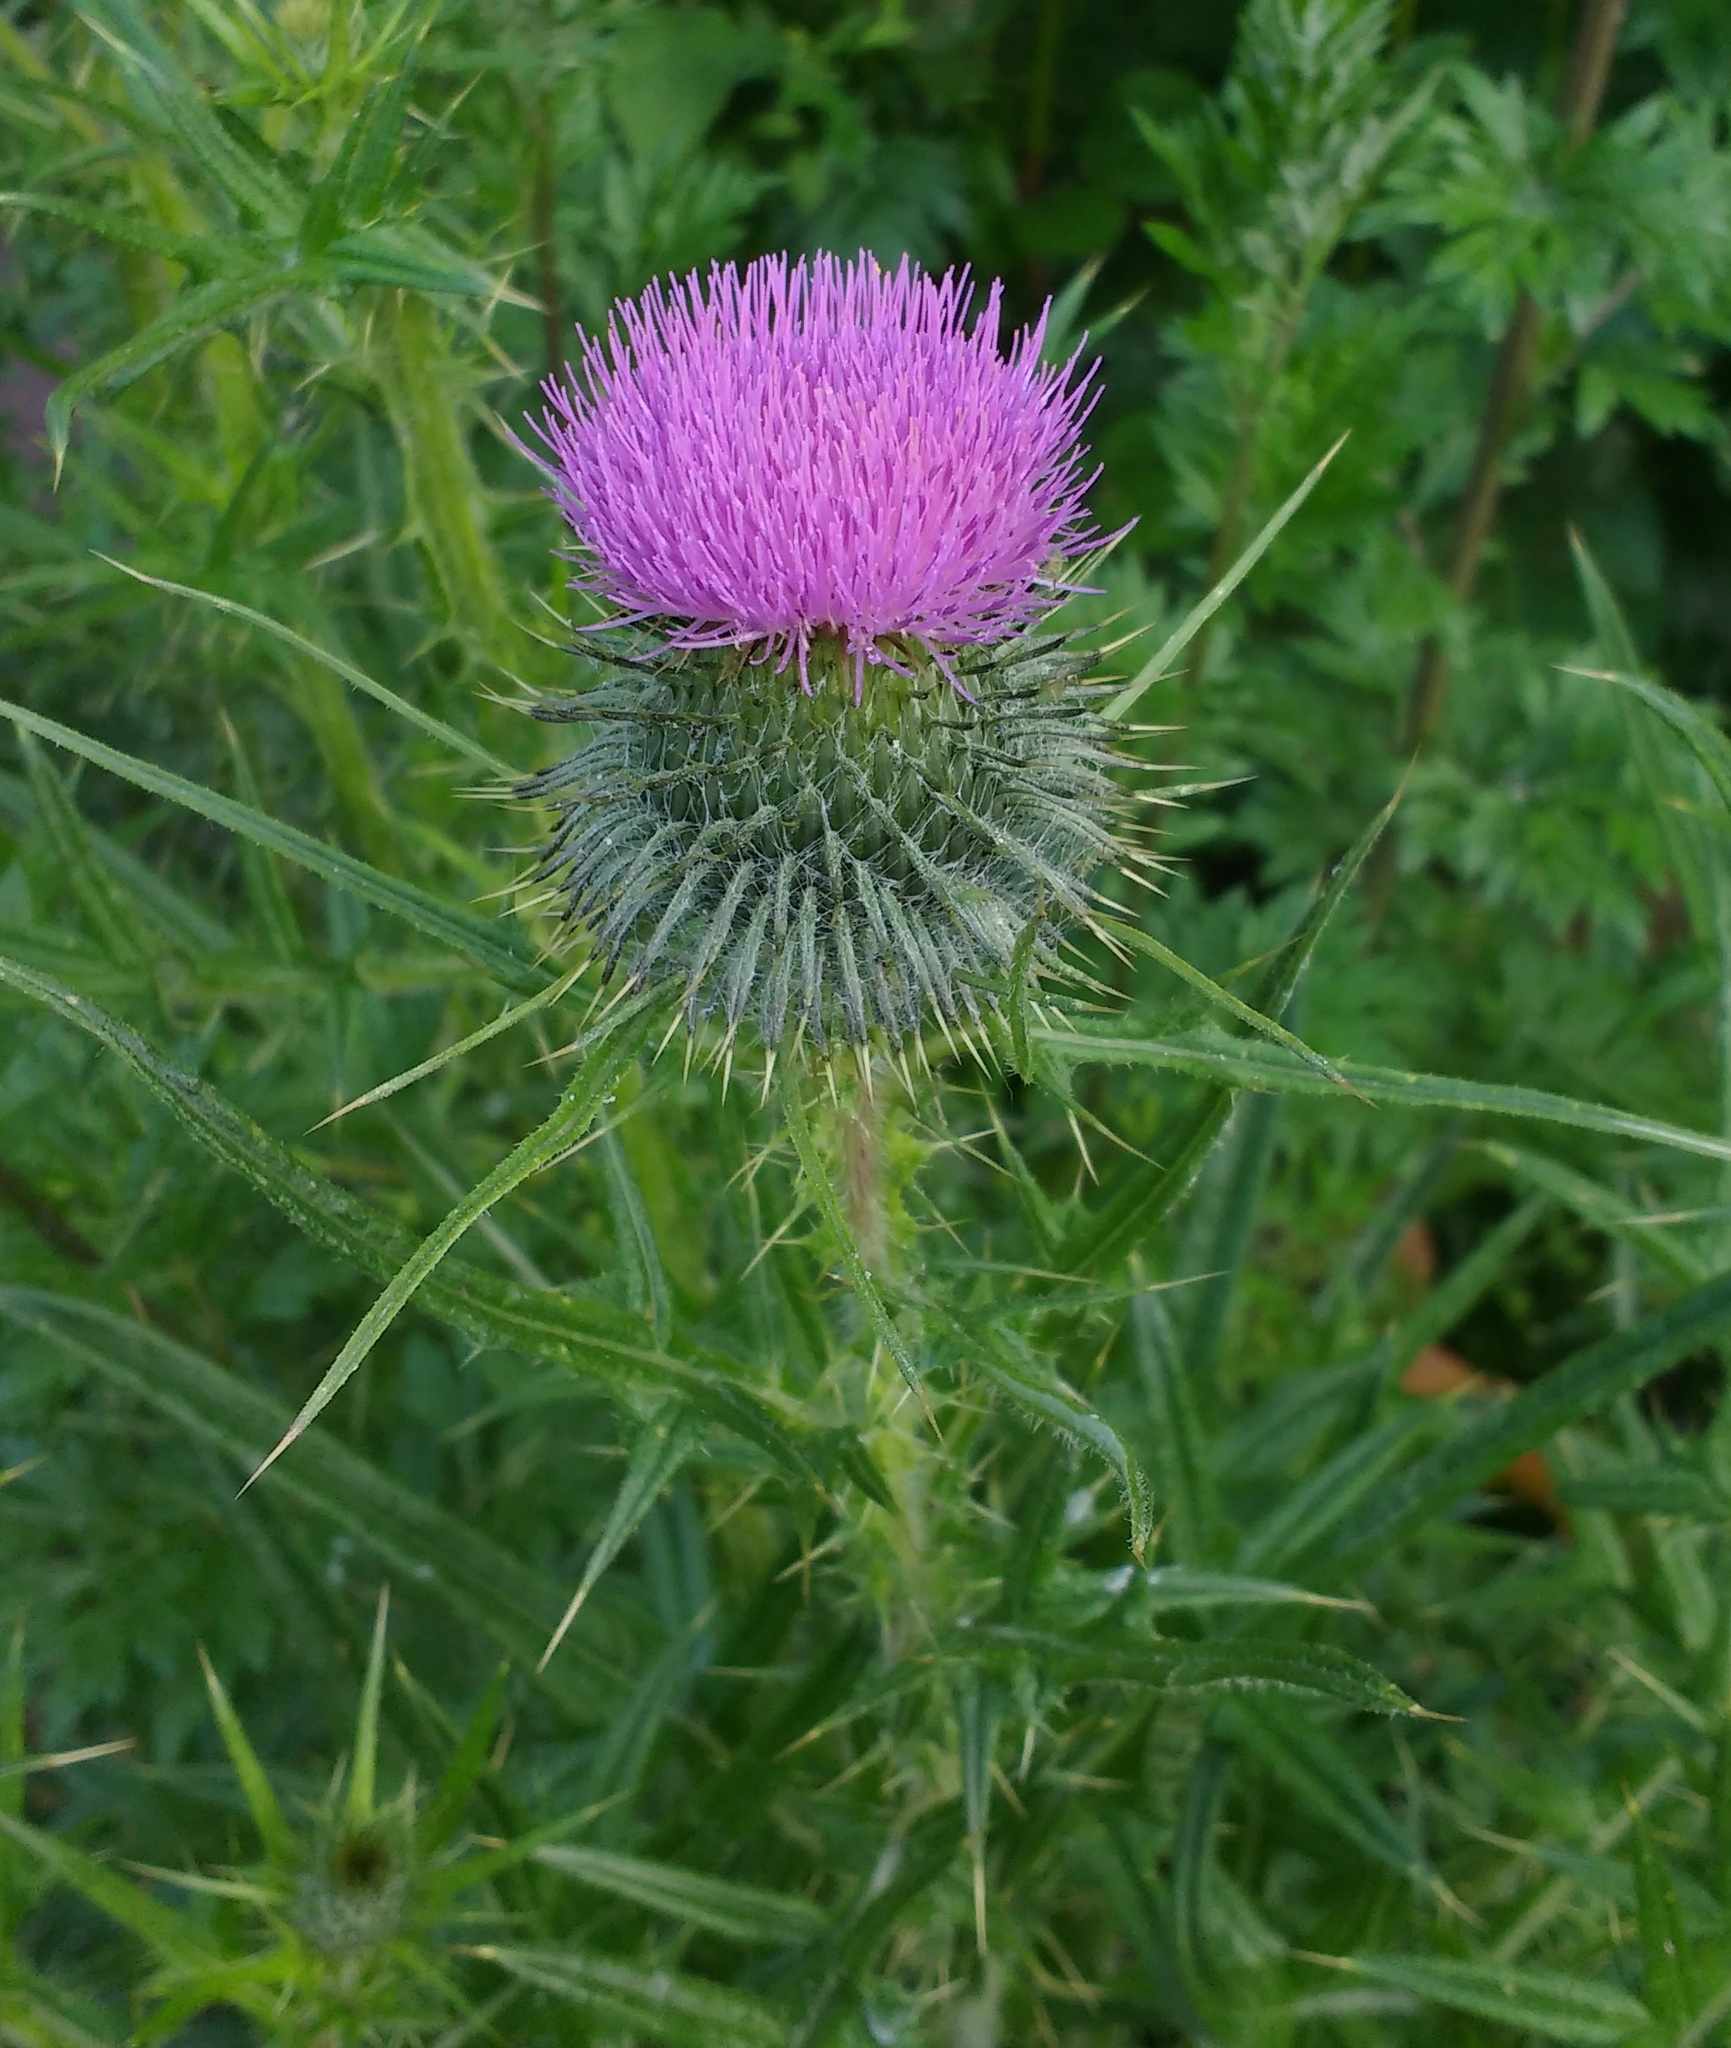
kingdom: Plantae
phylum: Tracheophyta
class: Magnoliopsida
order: Asterales
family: Asteraceae
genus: Cirsium
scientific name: Cirsium vulgare
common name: Bull thistle
